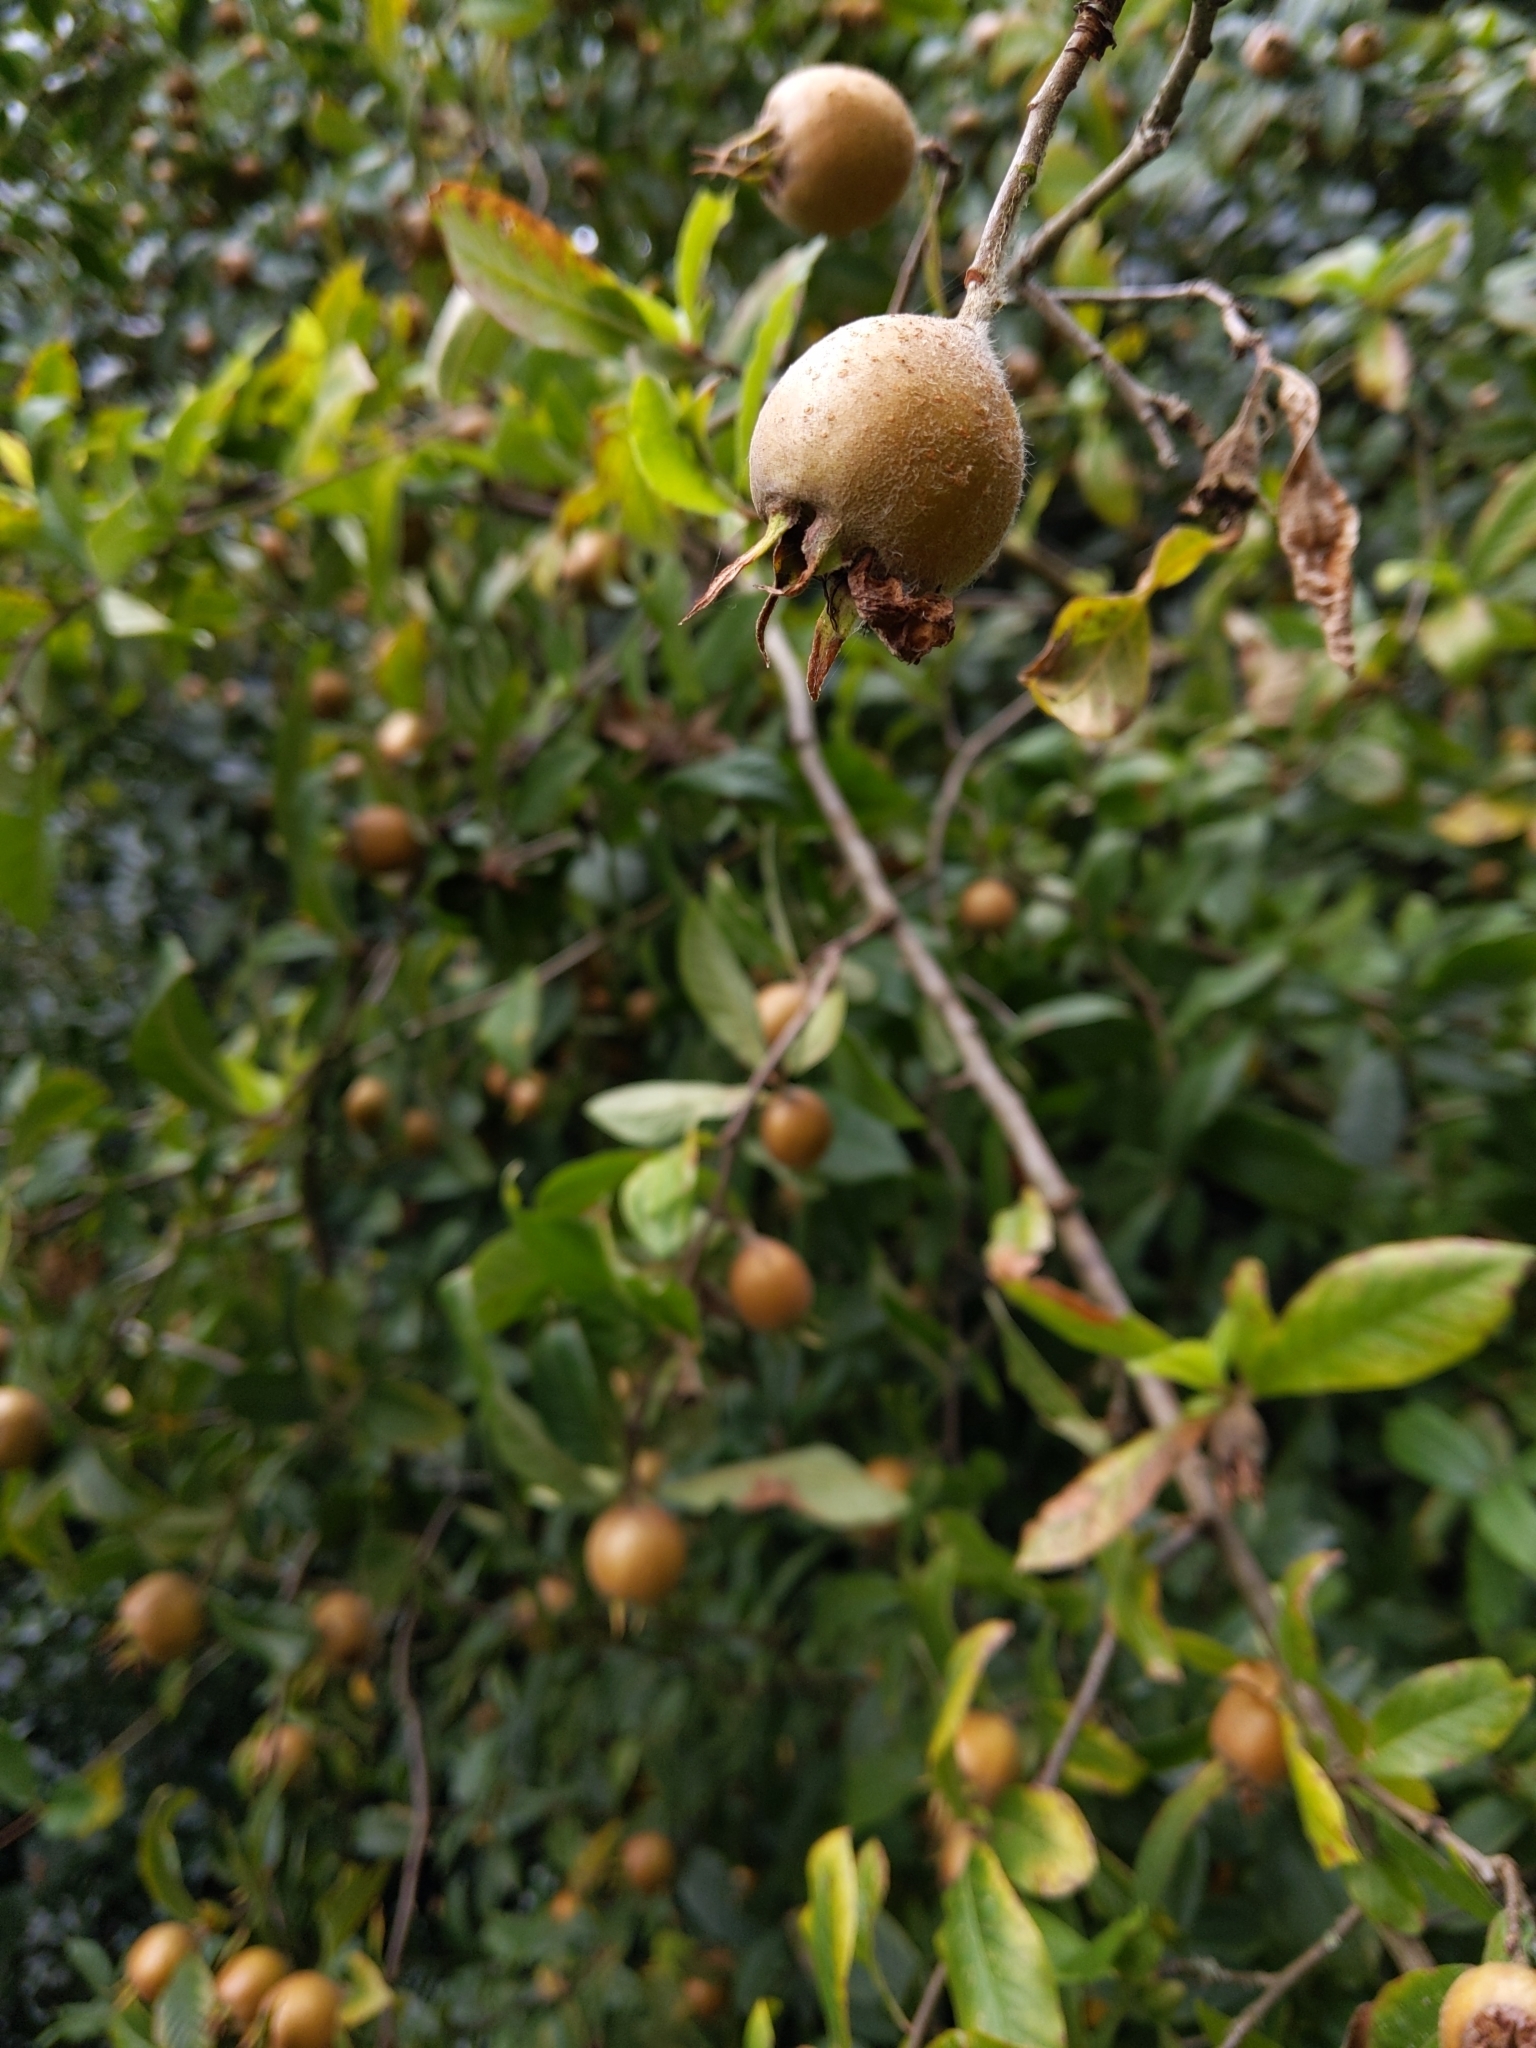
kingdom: Plantae
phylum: Tracheophyta
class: Magnoliopsida
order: Rosales
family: Rosaceae
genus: Mespilus
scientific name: Mespilus germanica
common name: Medlar
